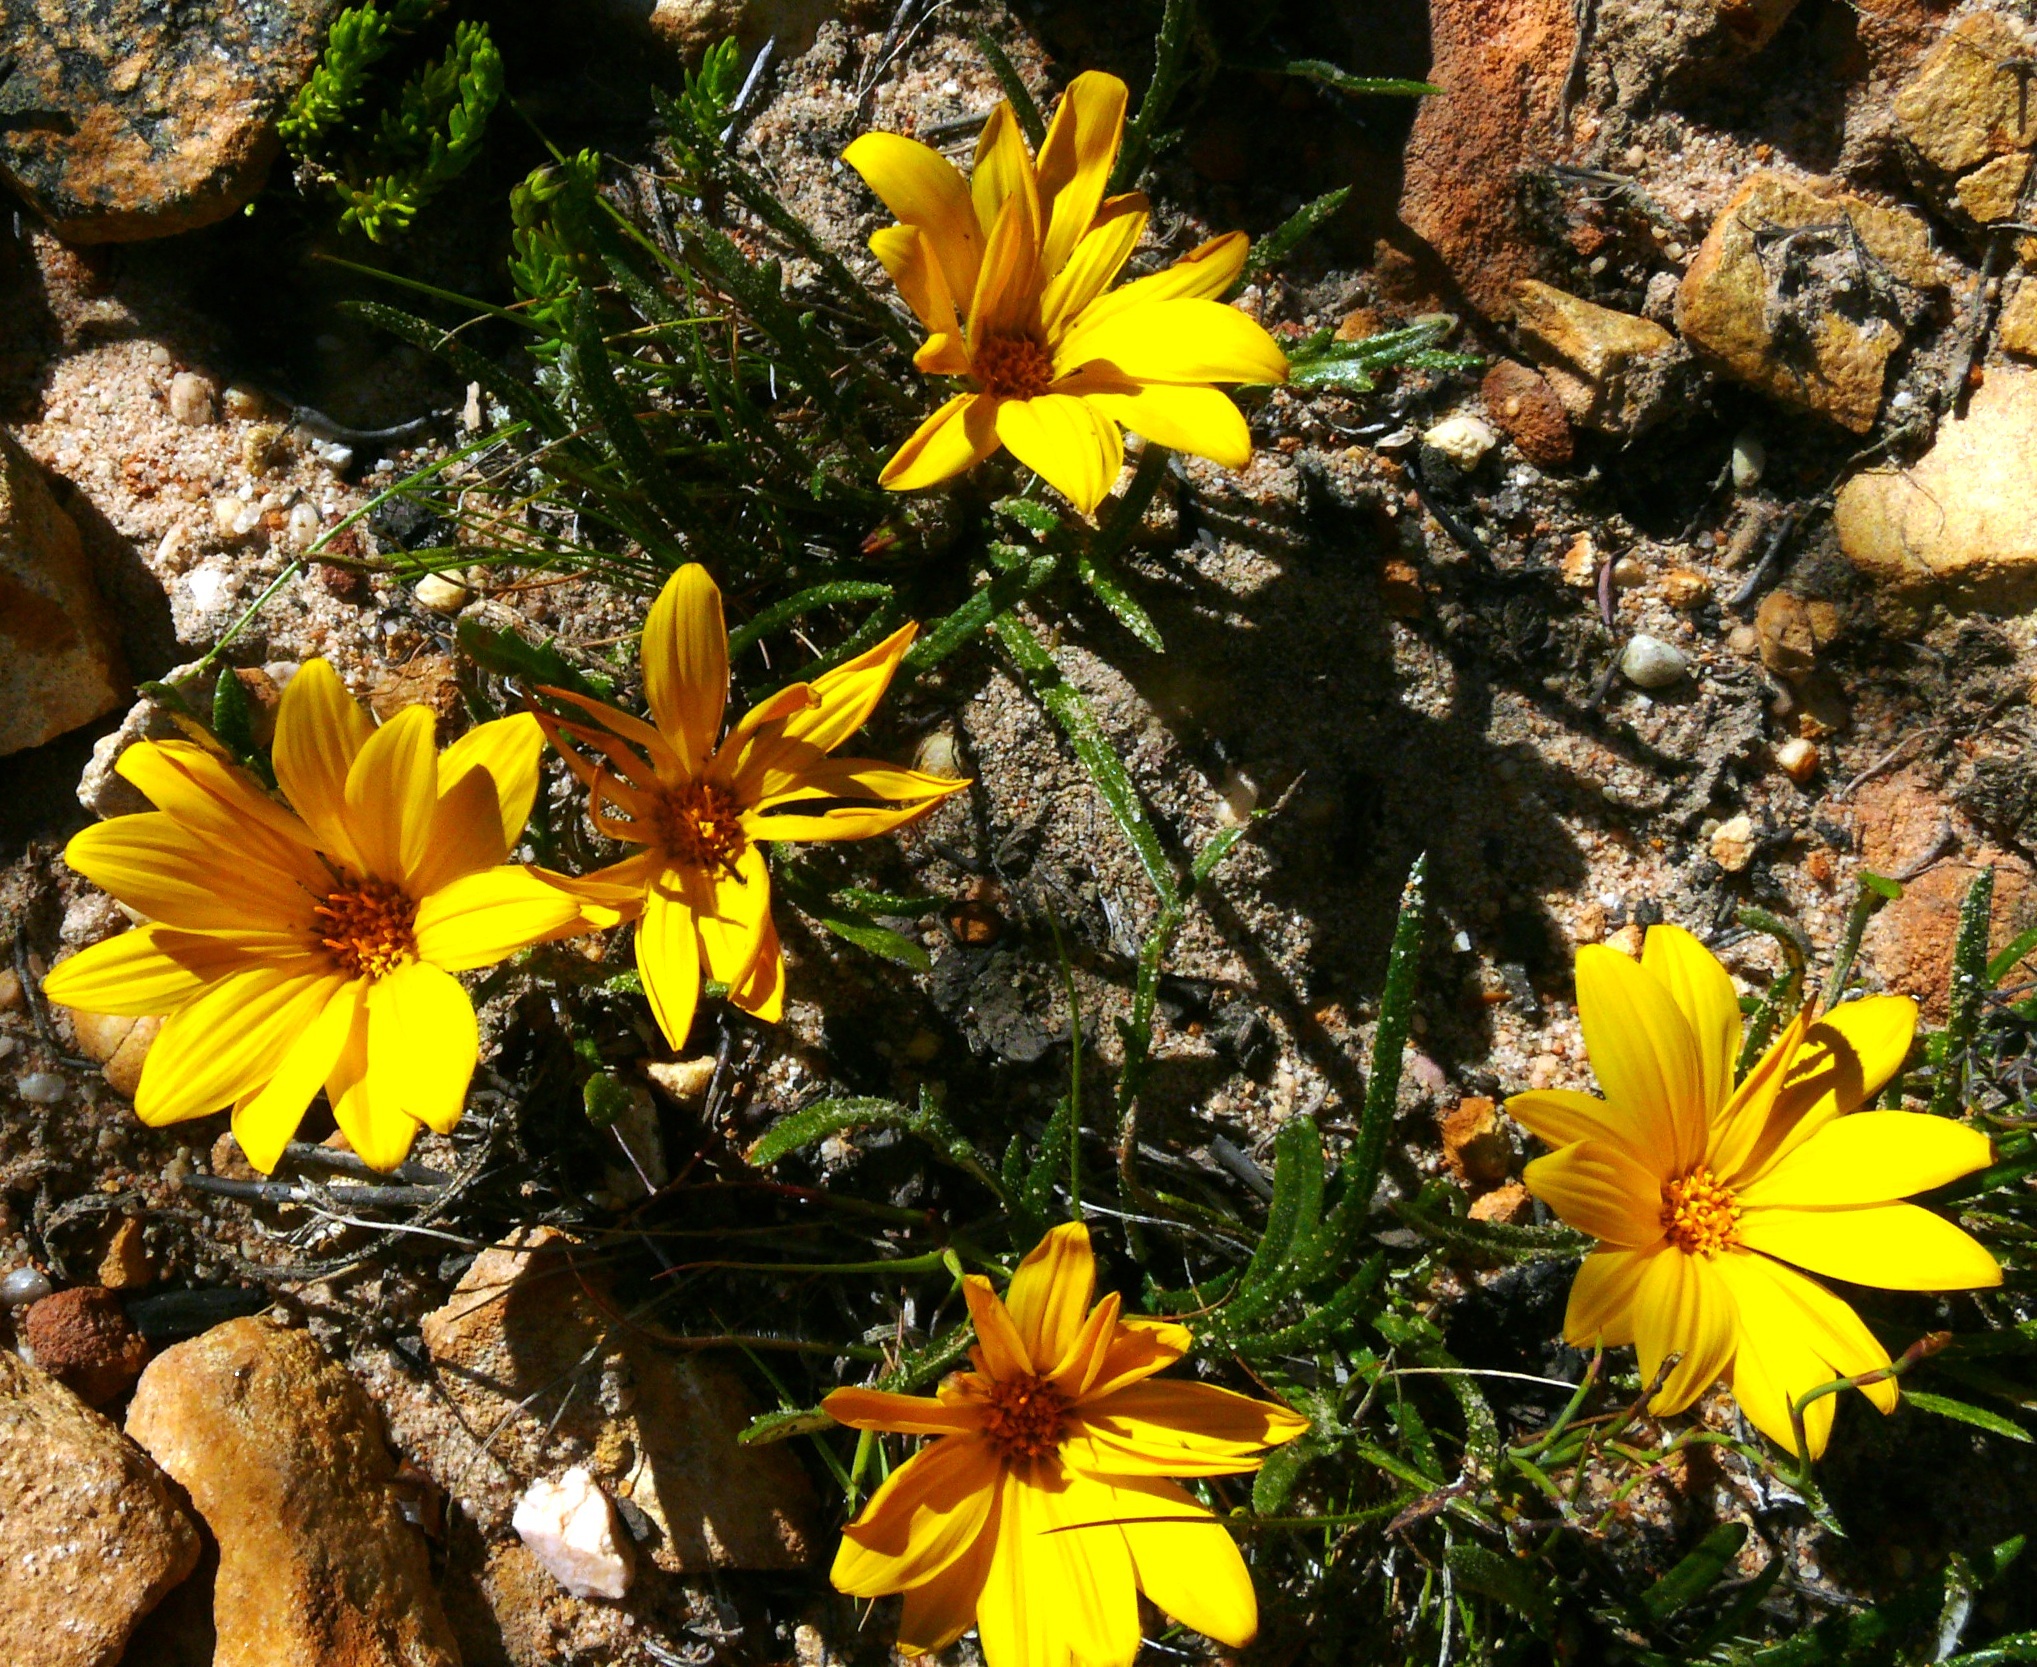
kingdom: Plantae
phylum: Tracheophyta
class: Magnoliopsida
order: Asterales
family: Asteraceae
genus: Gazania
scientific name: Gazania serrata
